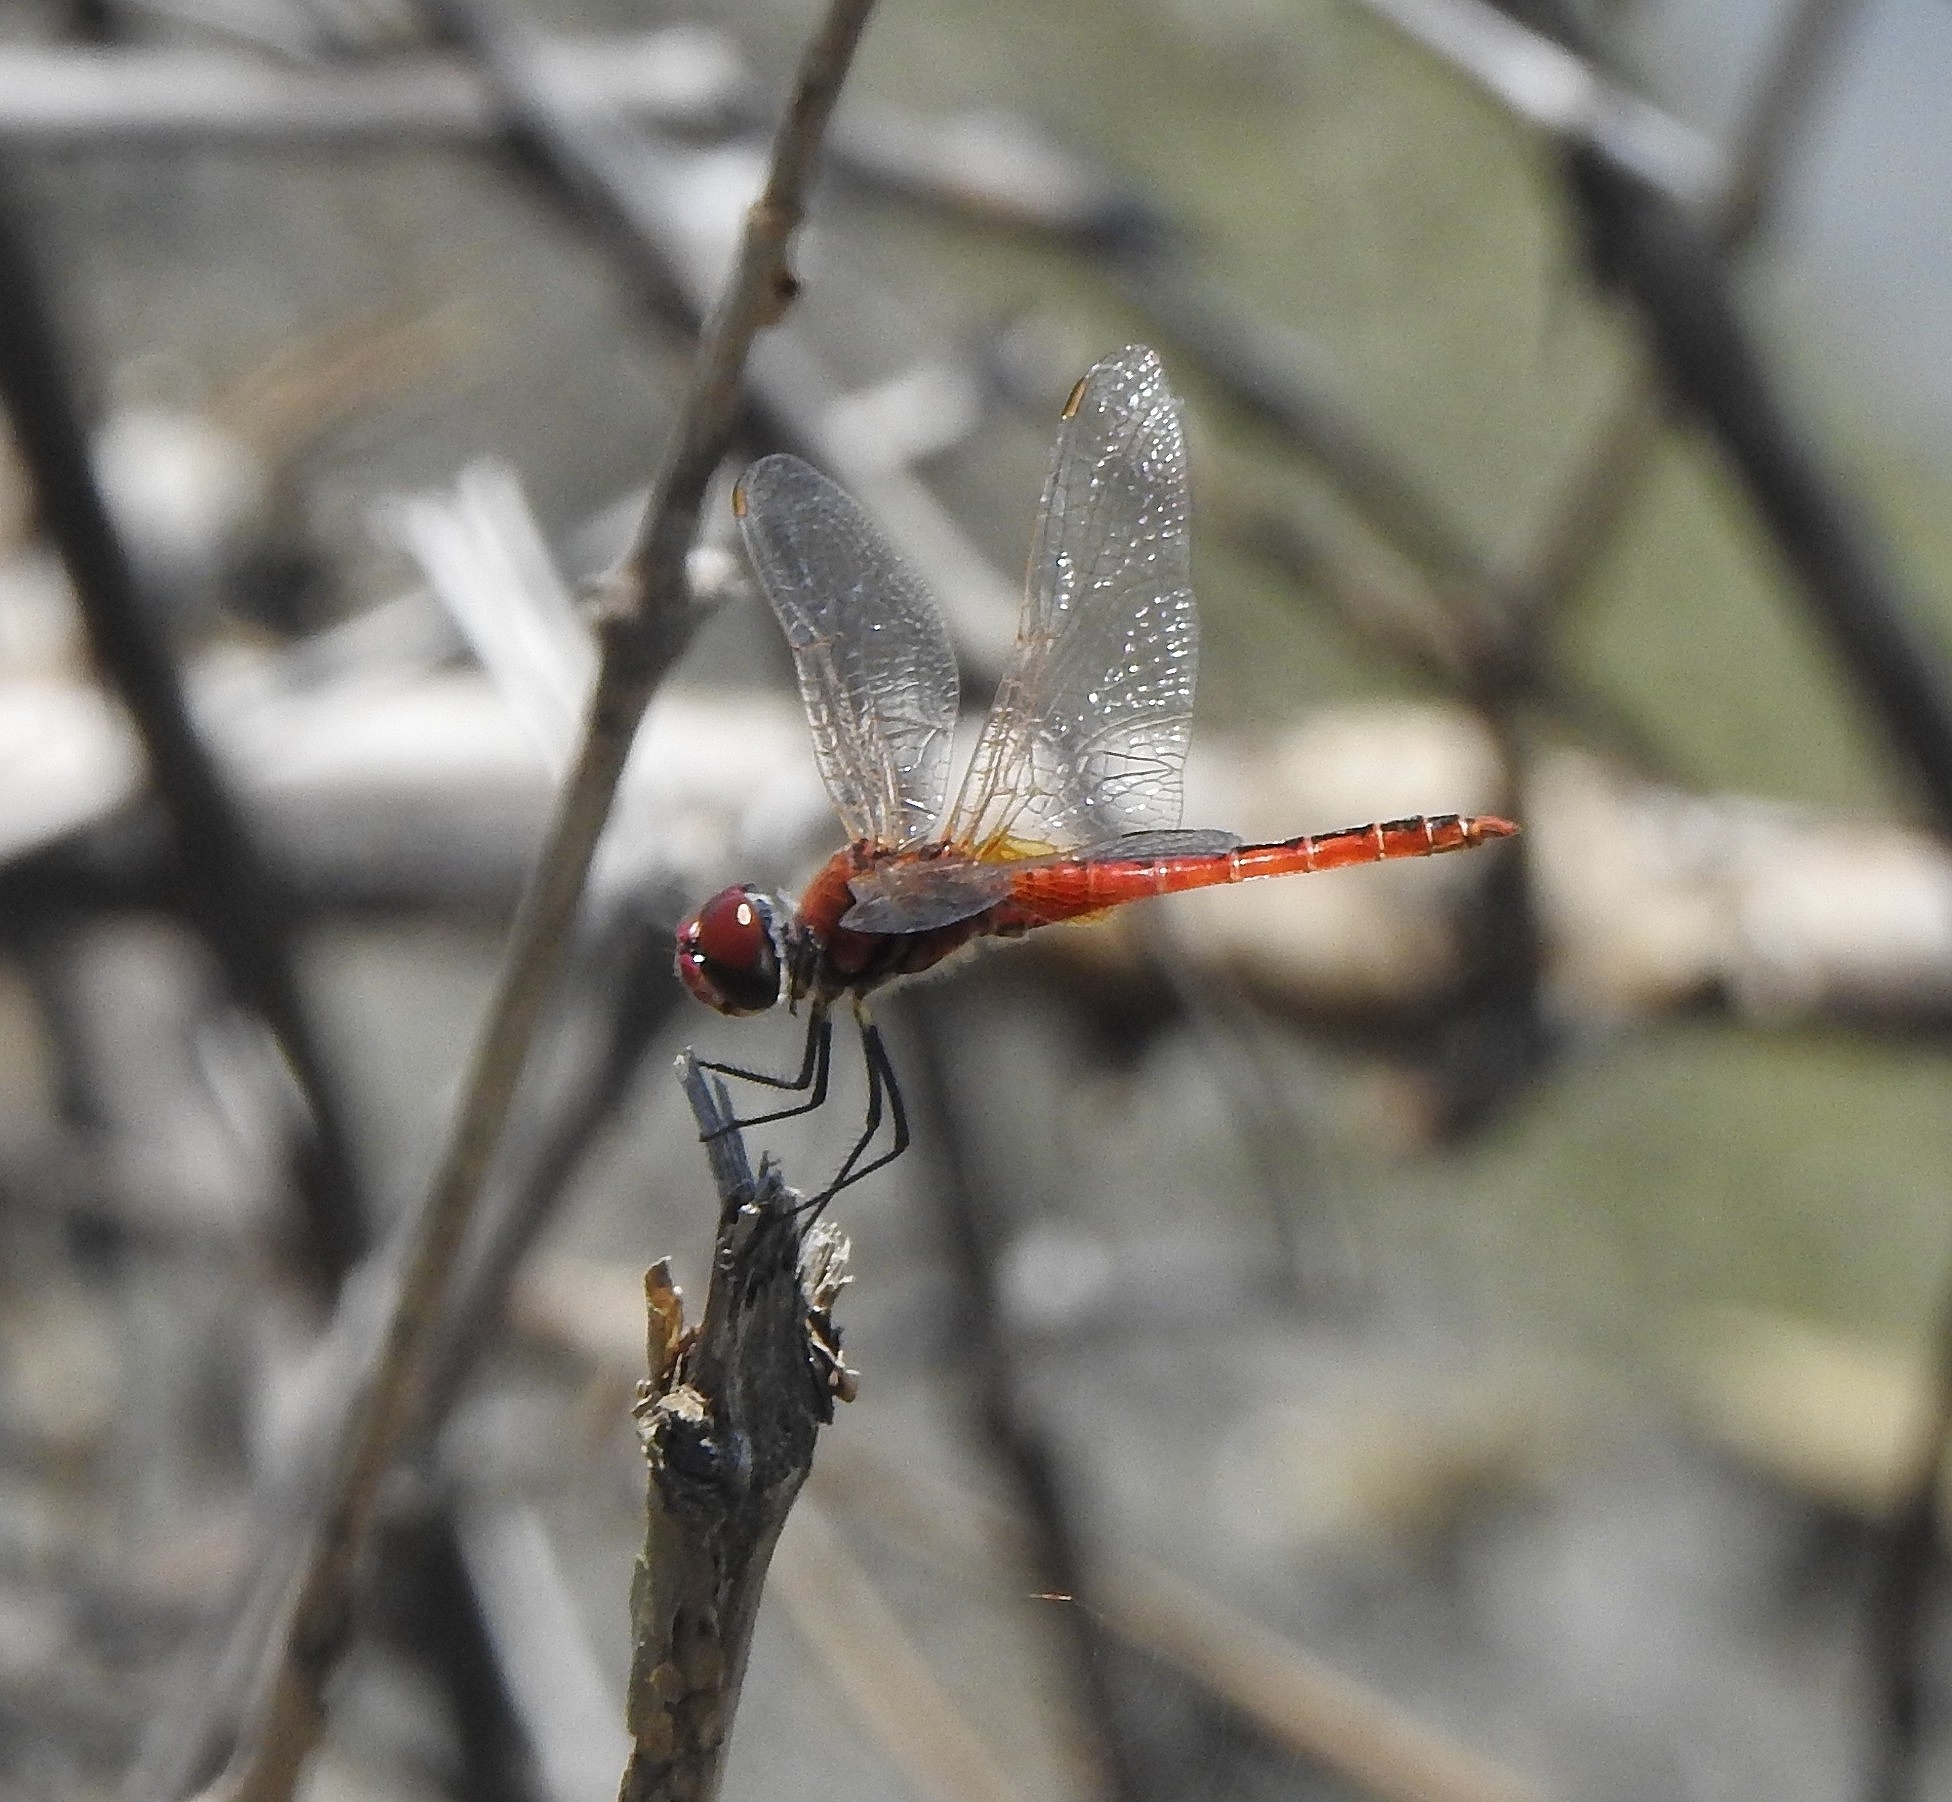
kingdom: Animalia
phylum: Arthropoda
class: Insecta
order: Odonata
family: Libellulidae
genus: Macrodiplax
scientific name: Macrodiplax cora
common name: Coastal glider
